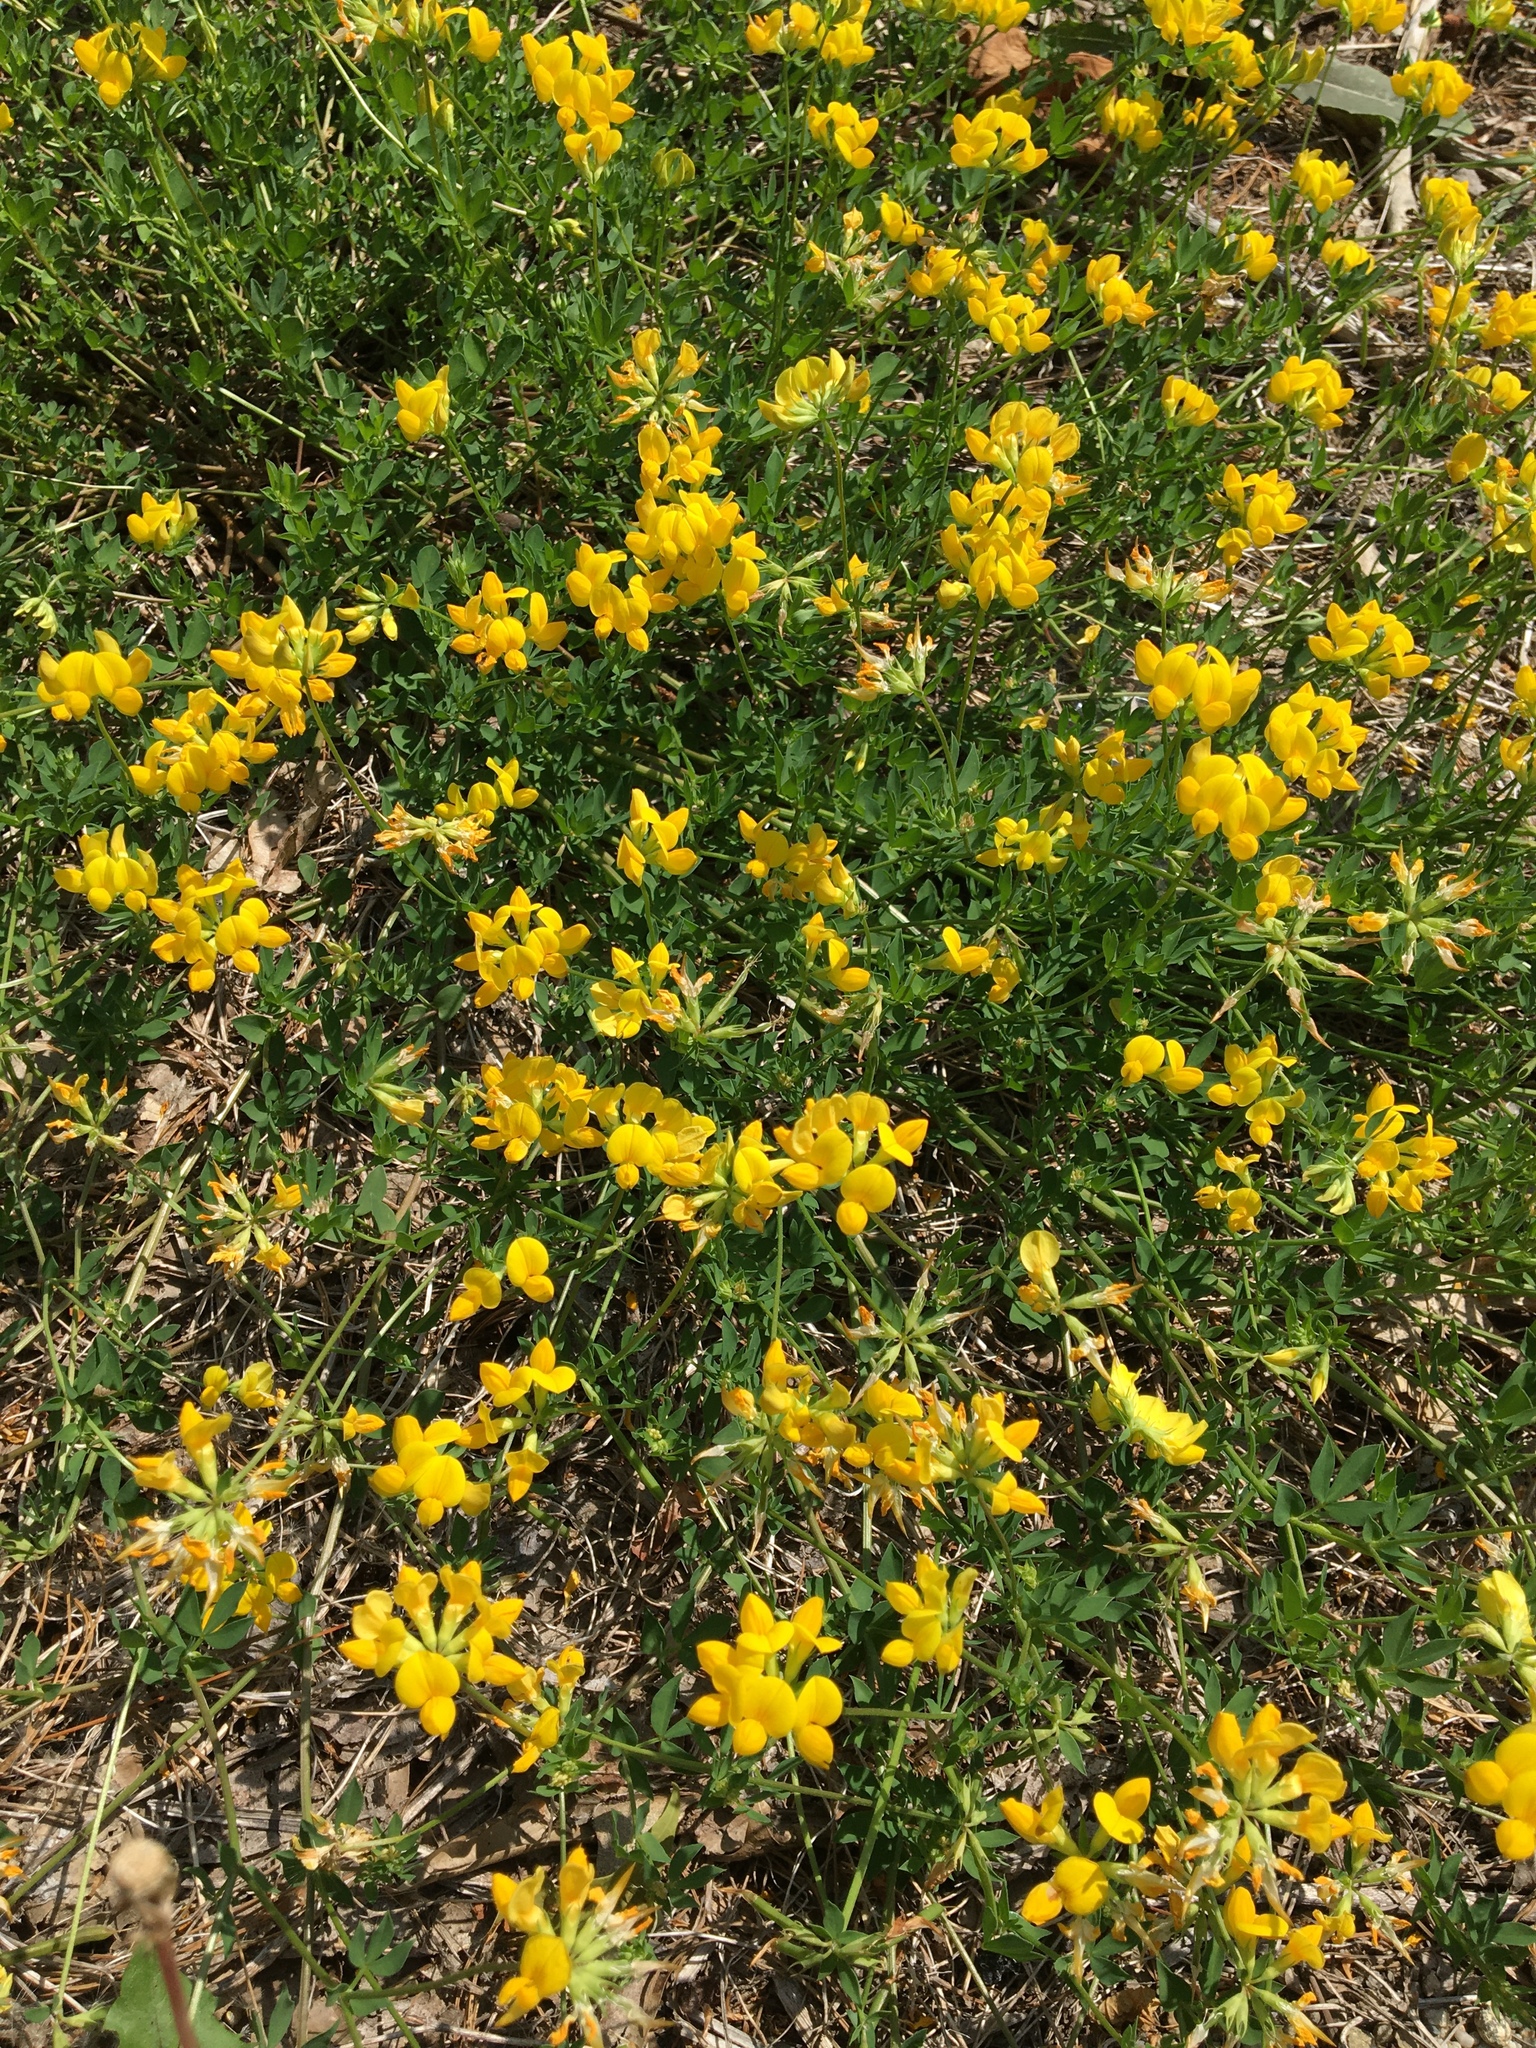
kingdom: Plantae
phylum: Tracheophyta
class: Magnoliopsida
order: Fabales
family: Fabaceae
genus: Lotus
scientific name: Lotus corniculatus
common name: Common bird's-foot-trefoil
